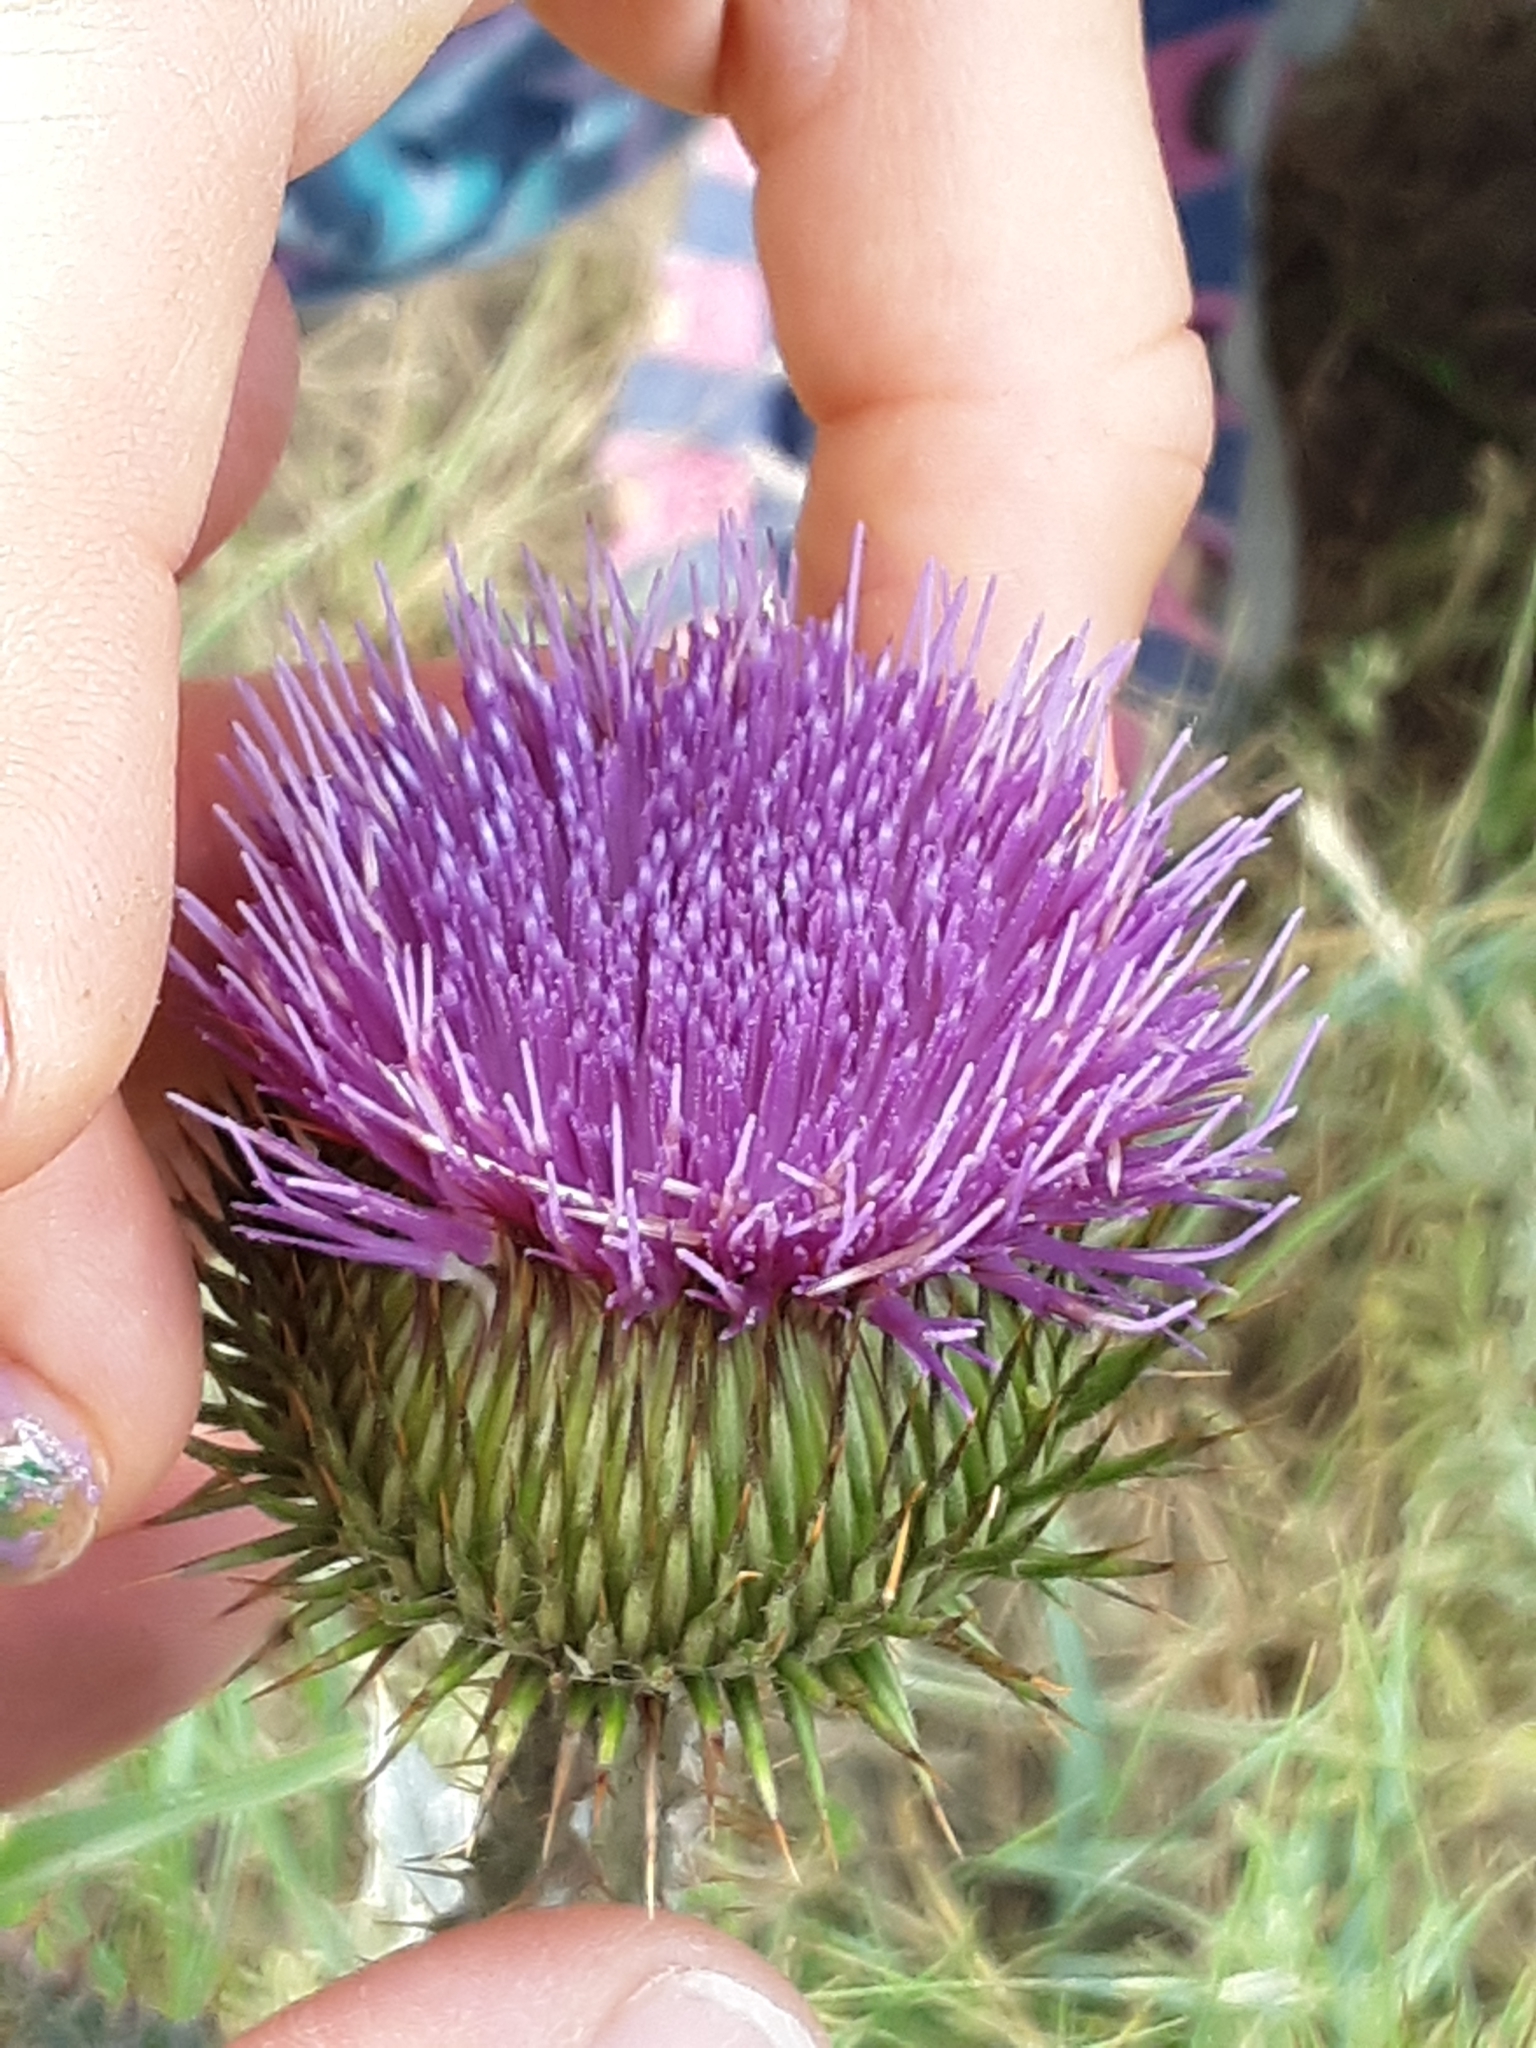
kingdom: Plantae
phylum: Tracheophyta
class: Magnoliopsida
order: Asterales
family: Asteraceae
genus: Onopordum
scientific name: Onopordum acanthium
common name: Scotch thistle
